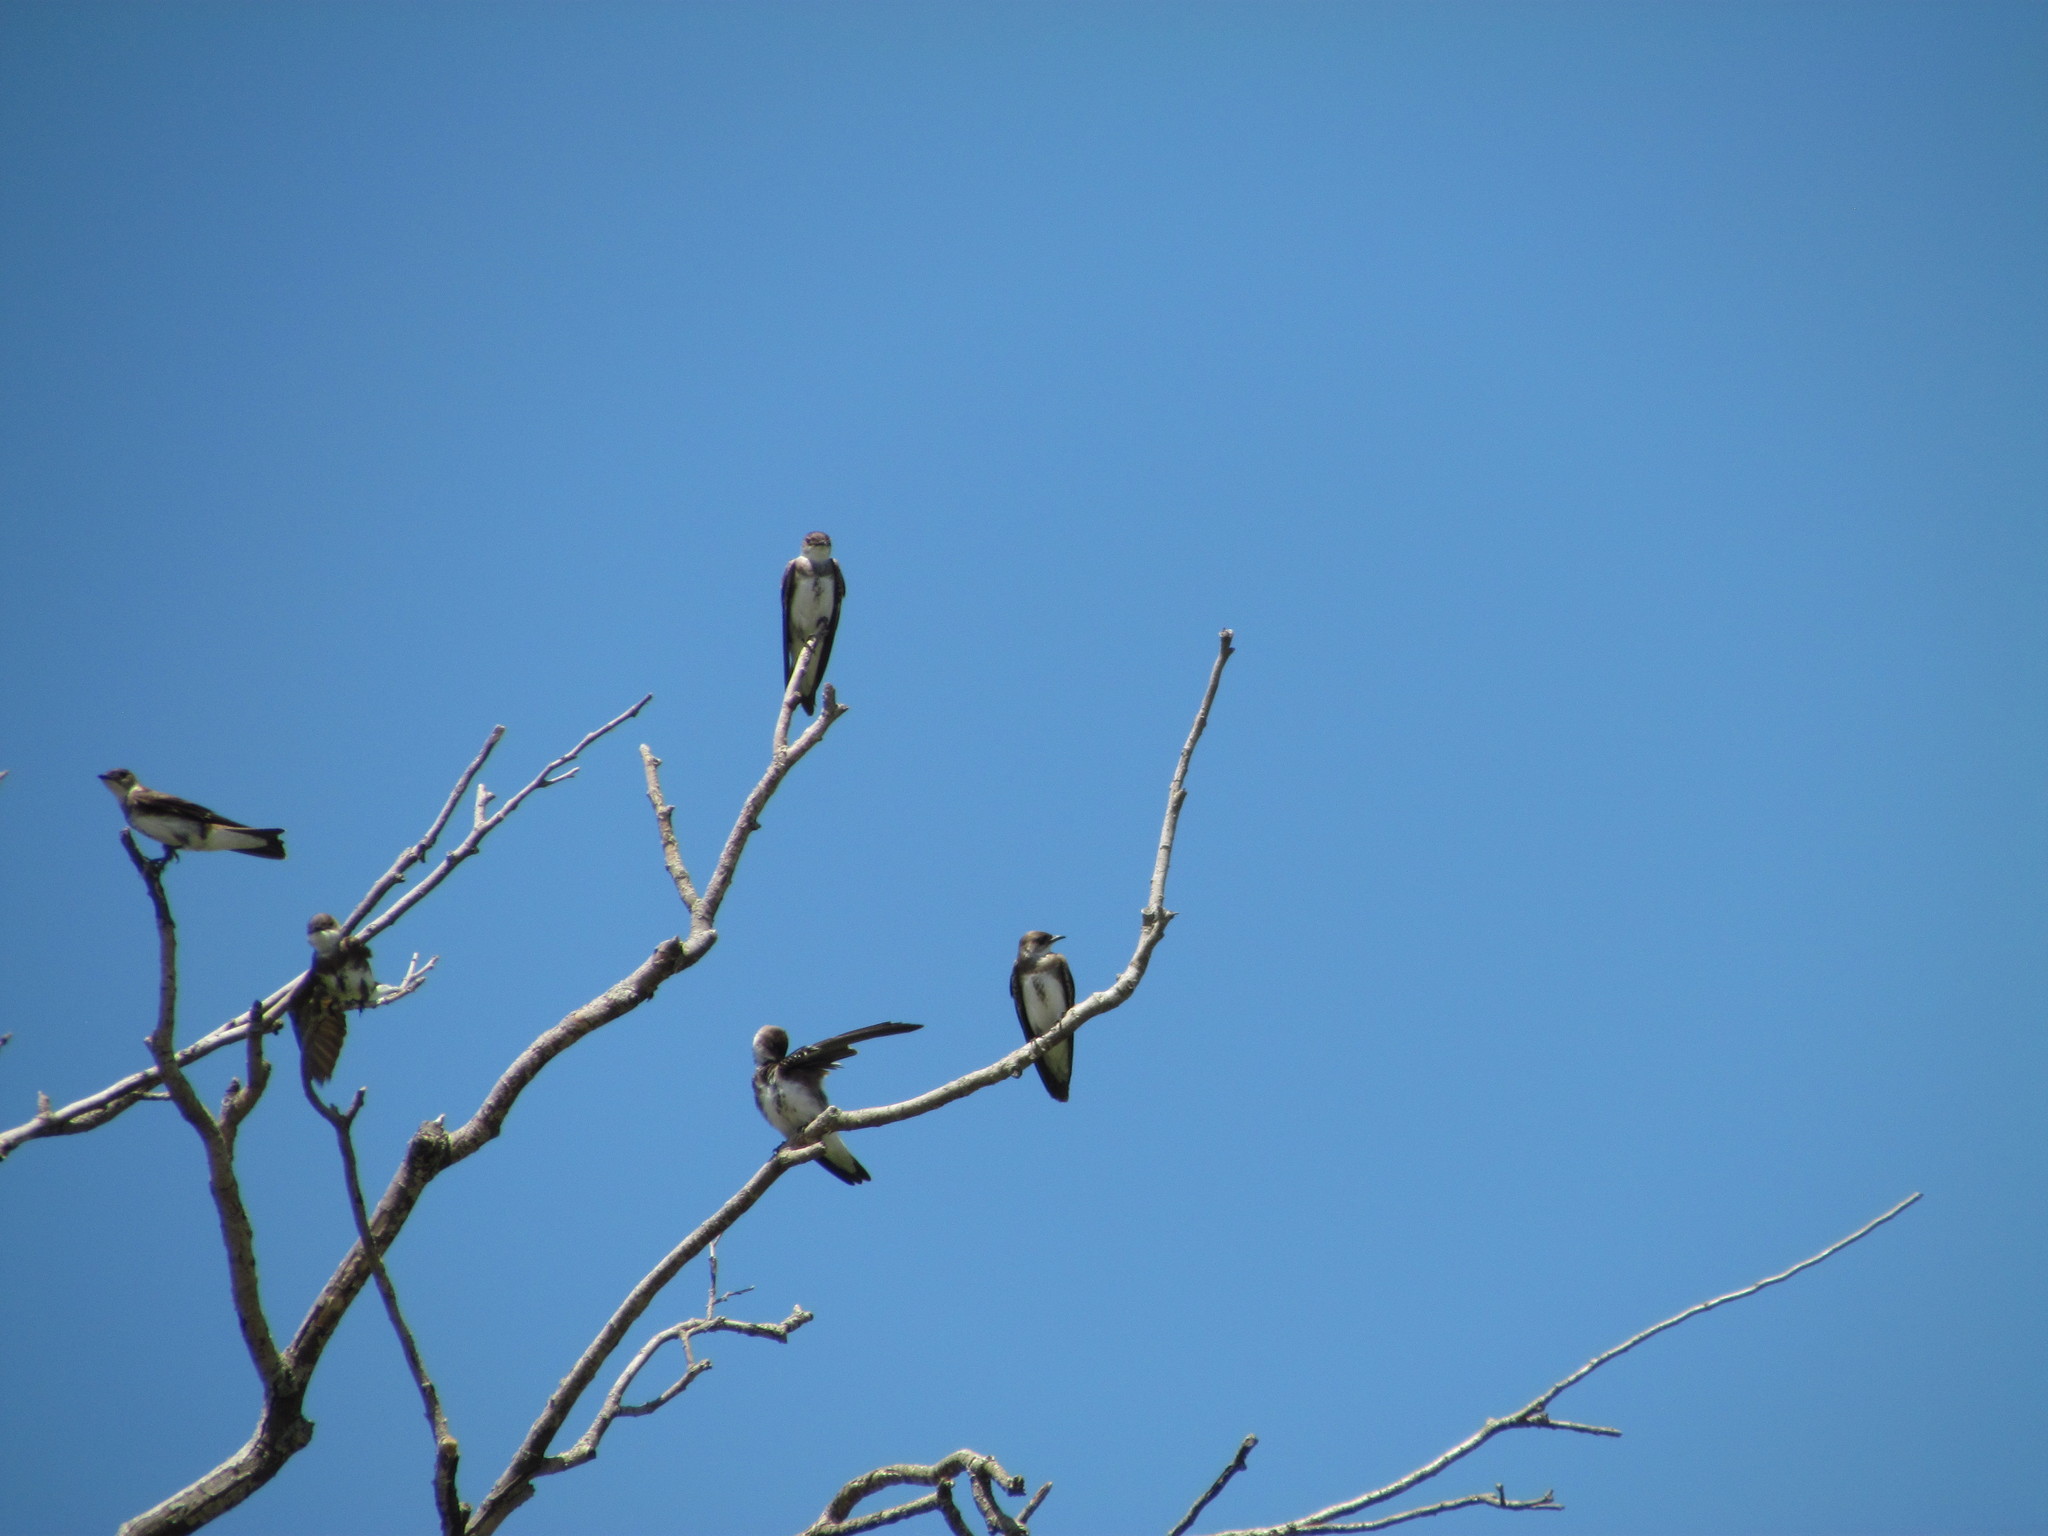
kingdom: Animalia
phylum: Chordata
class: Aves
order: Passeriformes
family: Hirundinidae
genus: Progne
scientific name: Progne tapera
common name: Brown-chested martin
